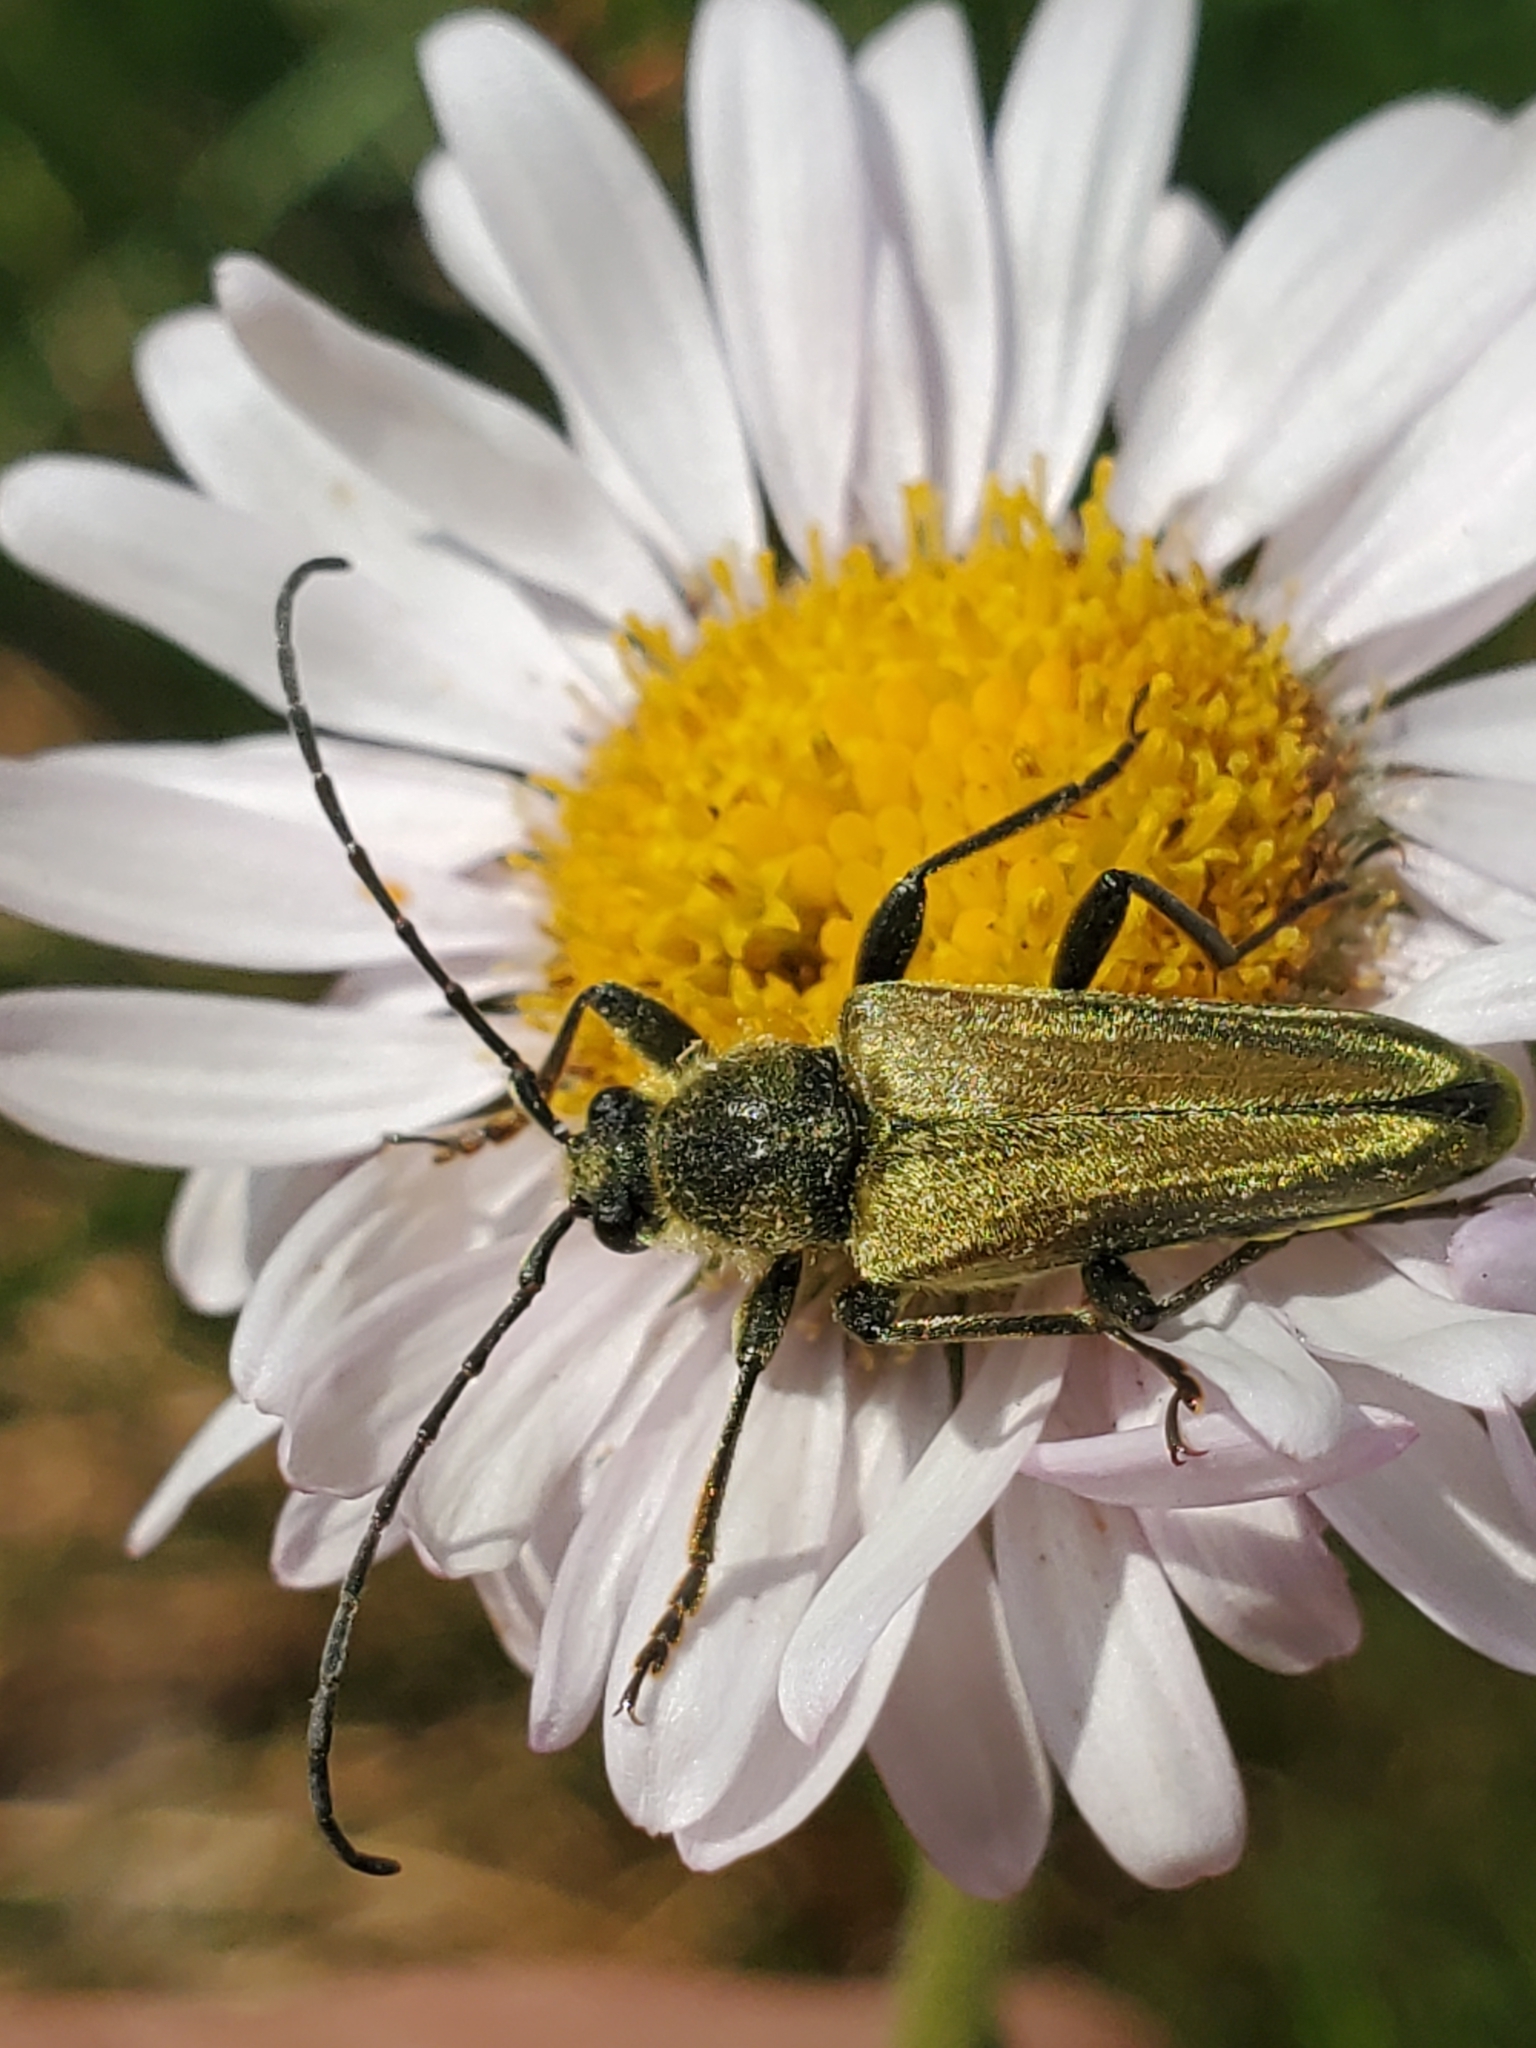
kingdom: Animalia
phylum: Arthropoda
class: Insecta
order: Coleoptera
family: Cerambycidae
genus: Cosmosalia
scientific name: Cosmosalia chrysocoma
